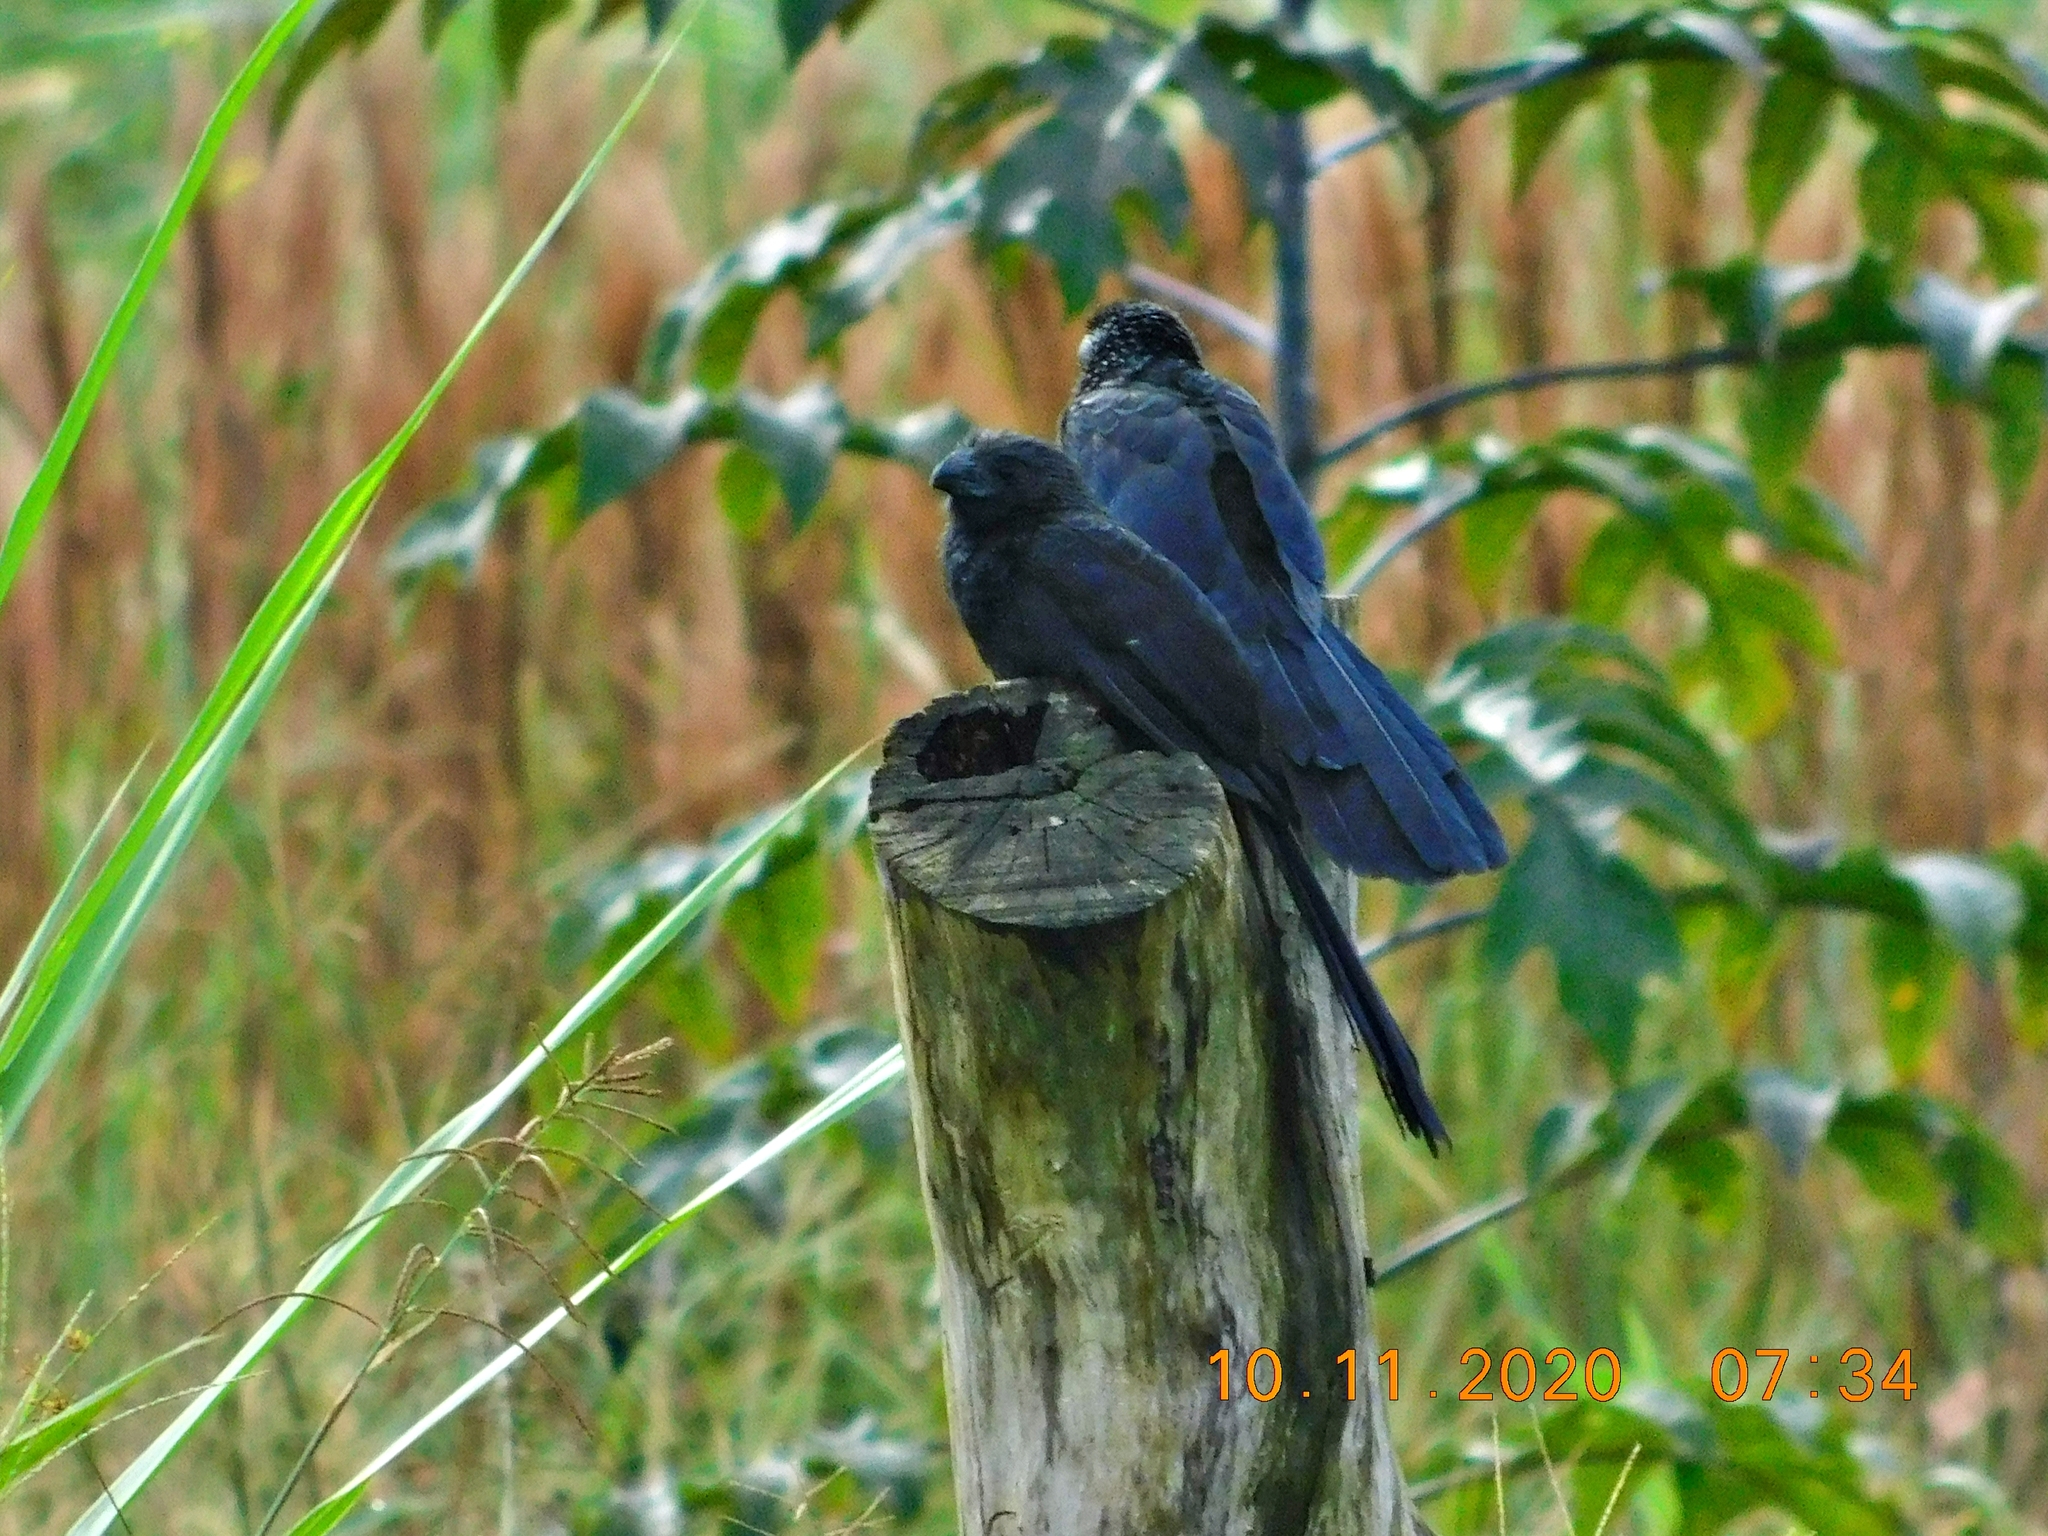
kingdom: Animalia
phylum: Chordata
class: Aves
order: Cuculiformes
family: Cuculidae
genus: Crotophaga
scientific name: Crotophaga sulcirostris
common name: Groove-billed ani
